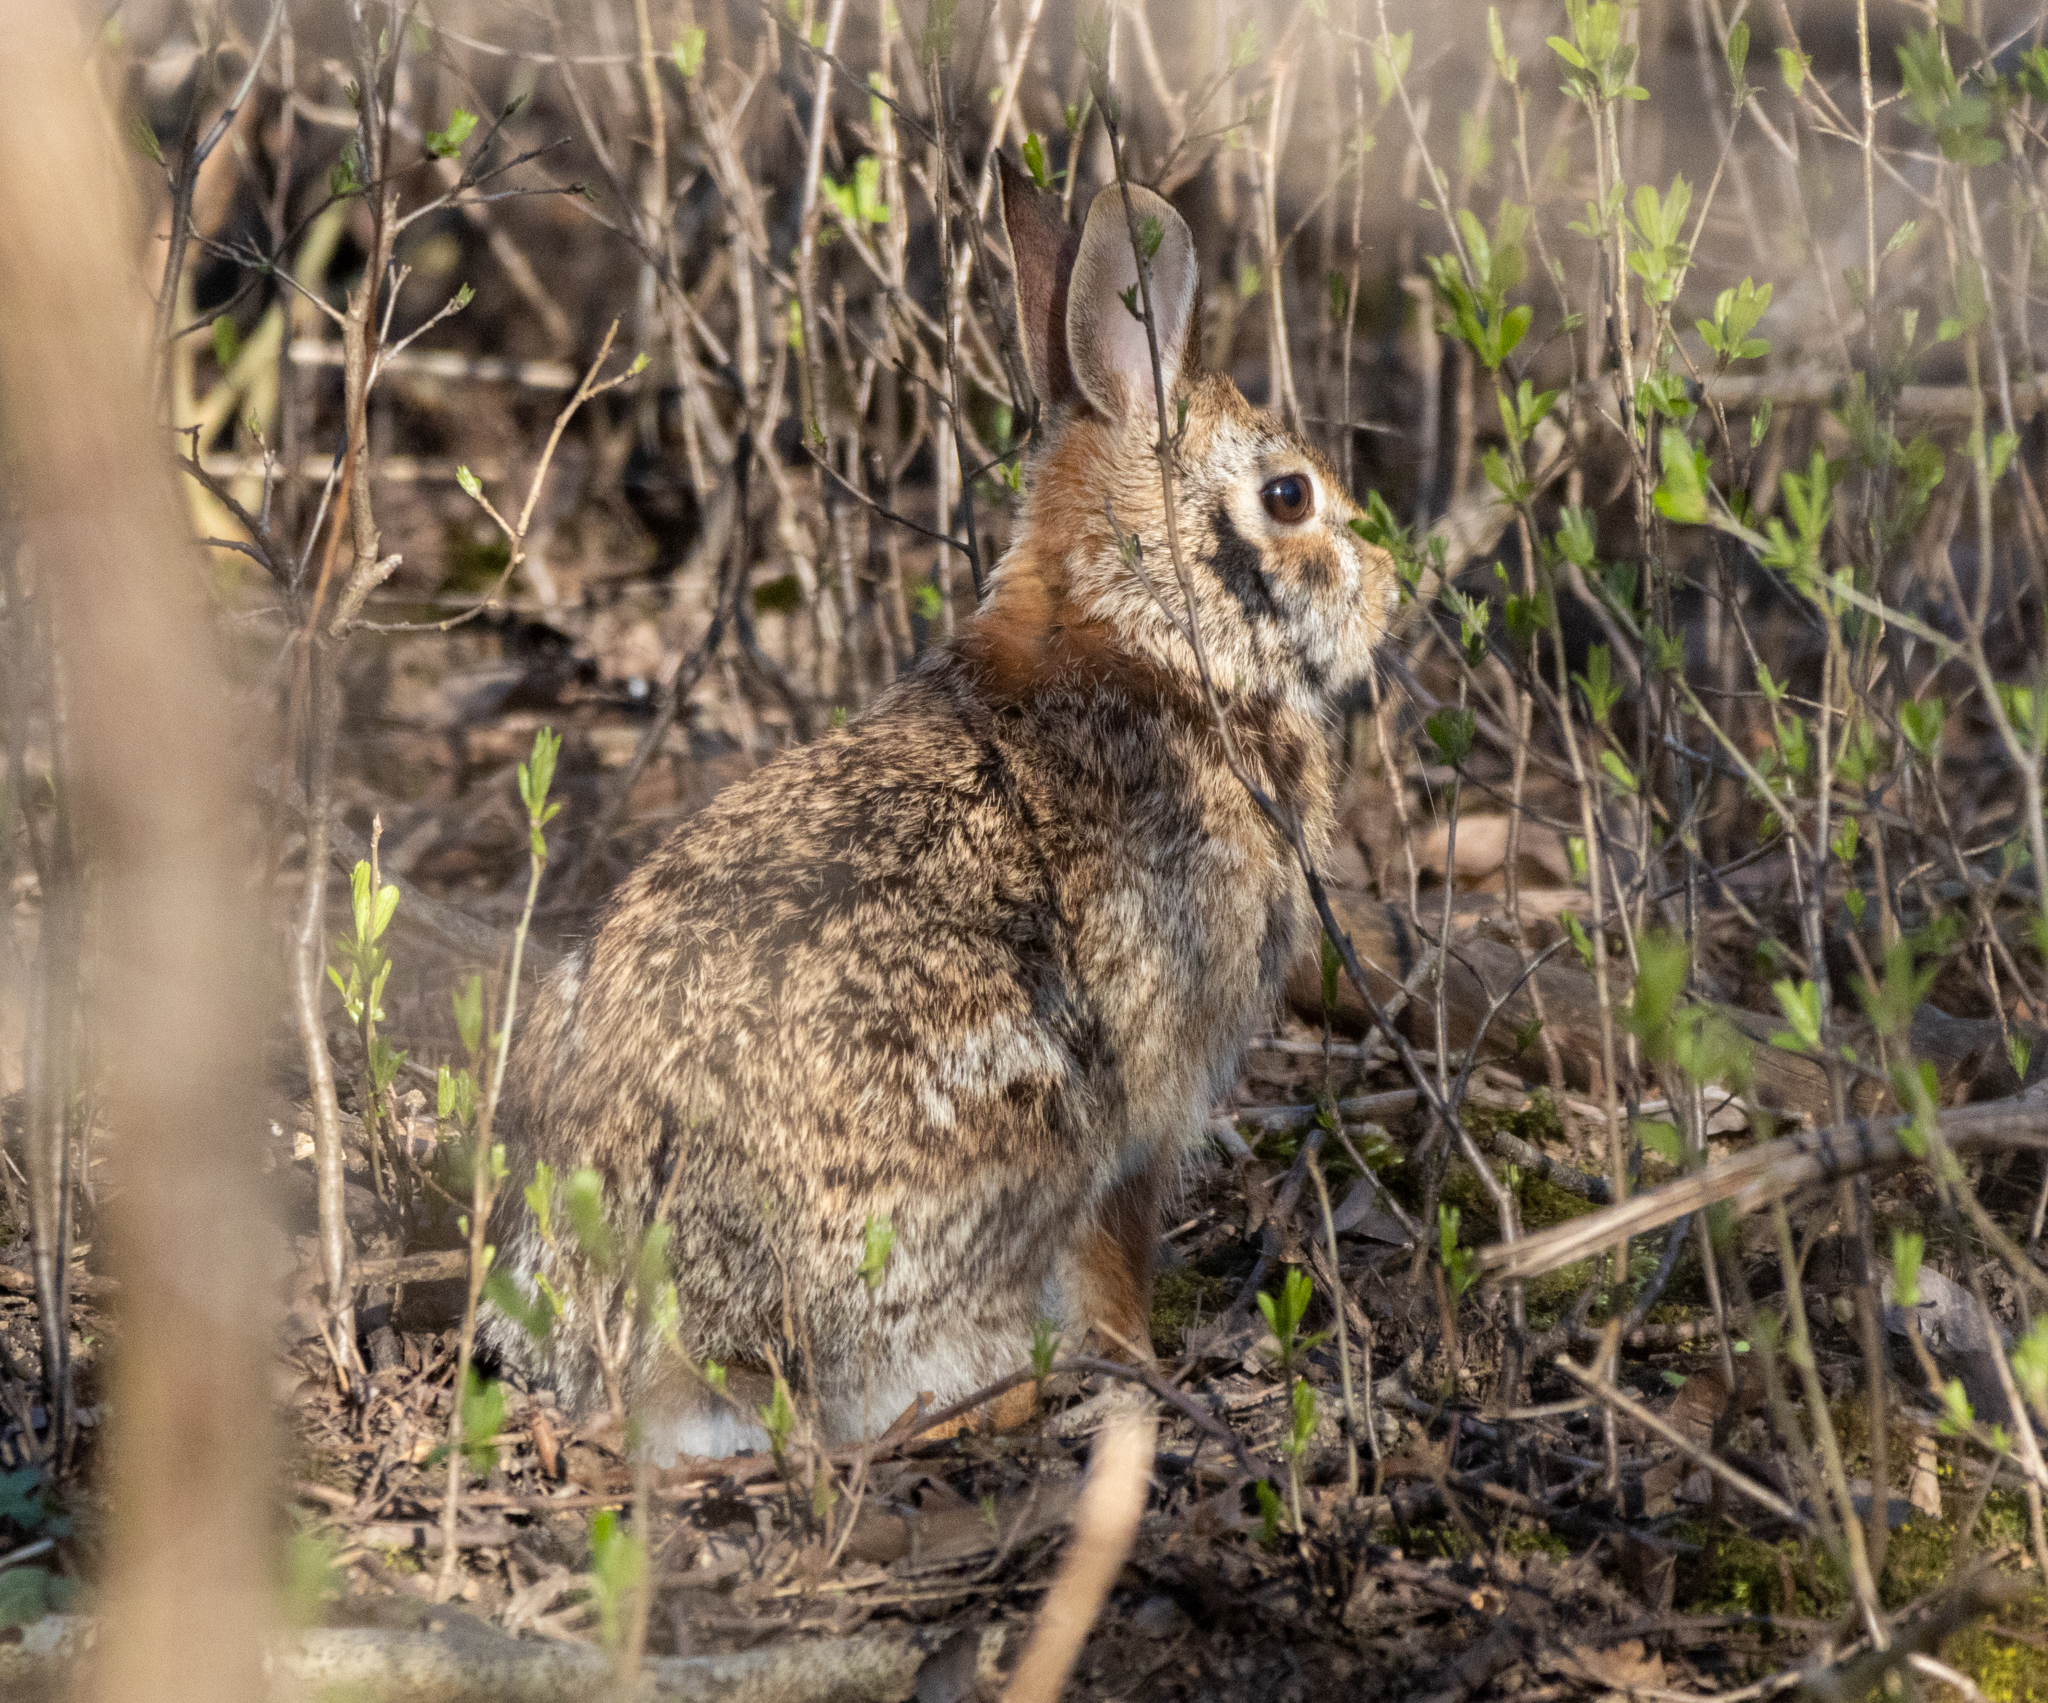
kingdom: Animalia
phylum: Chordata
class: Mammalia
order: Lagomorpha
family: Leporidae
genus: Sylvilagus
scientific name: Sylvilagus floridanus
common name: Eastern cottontail
